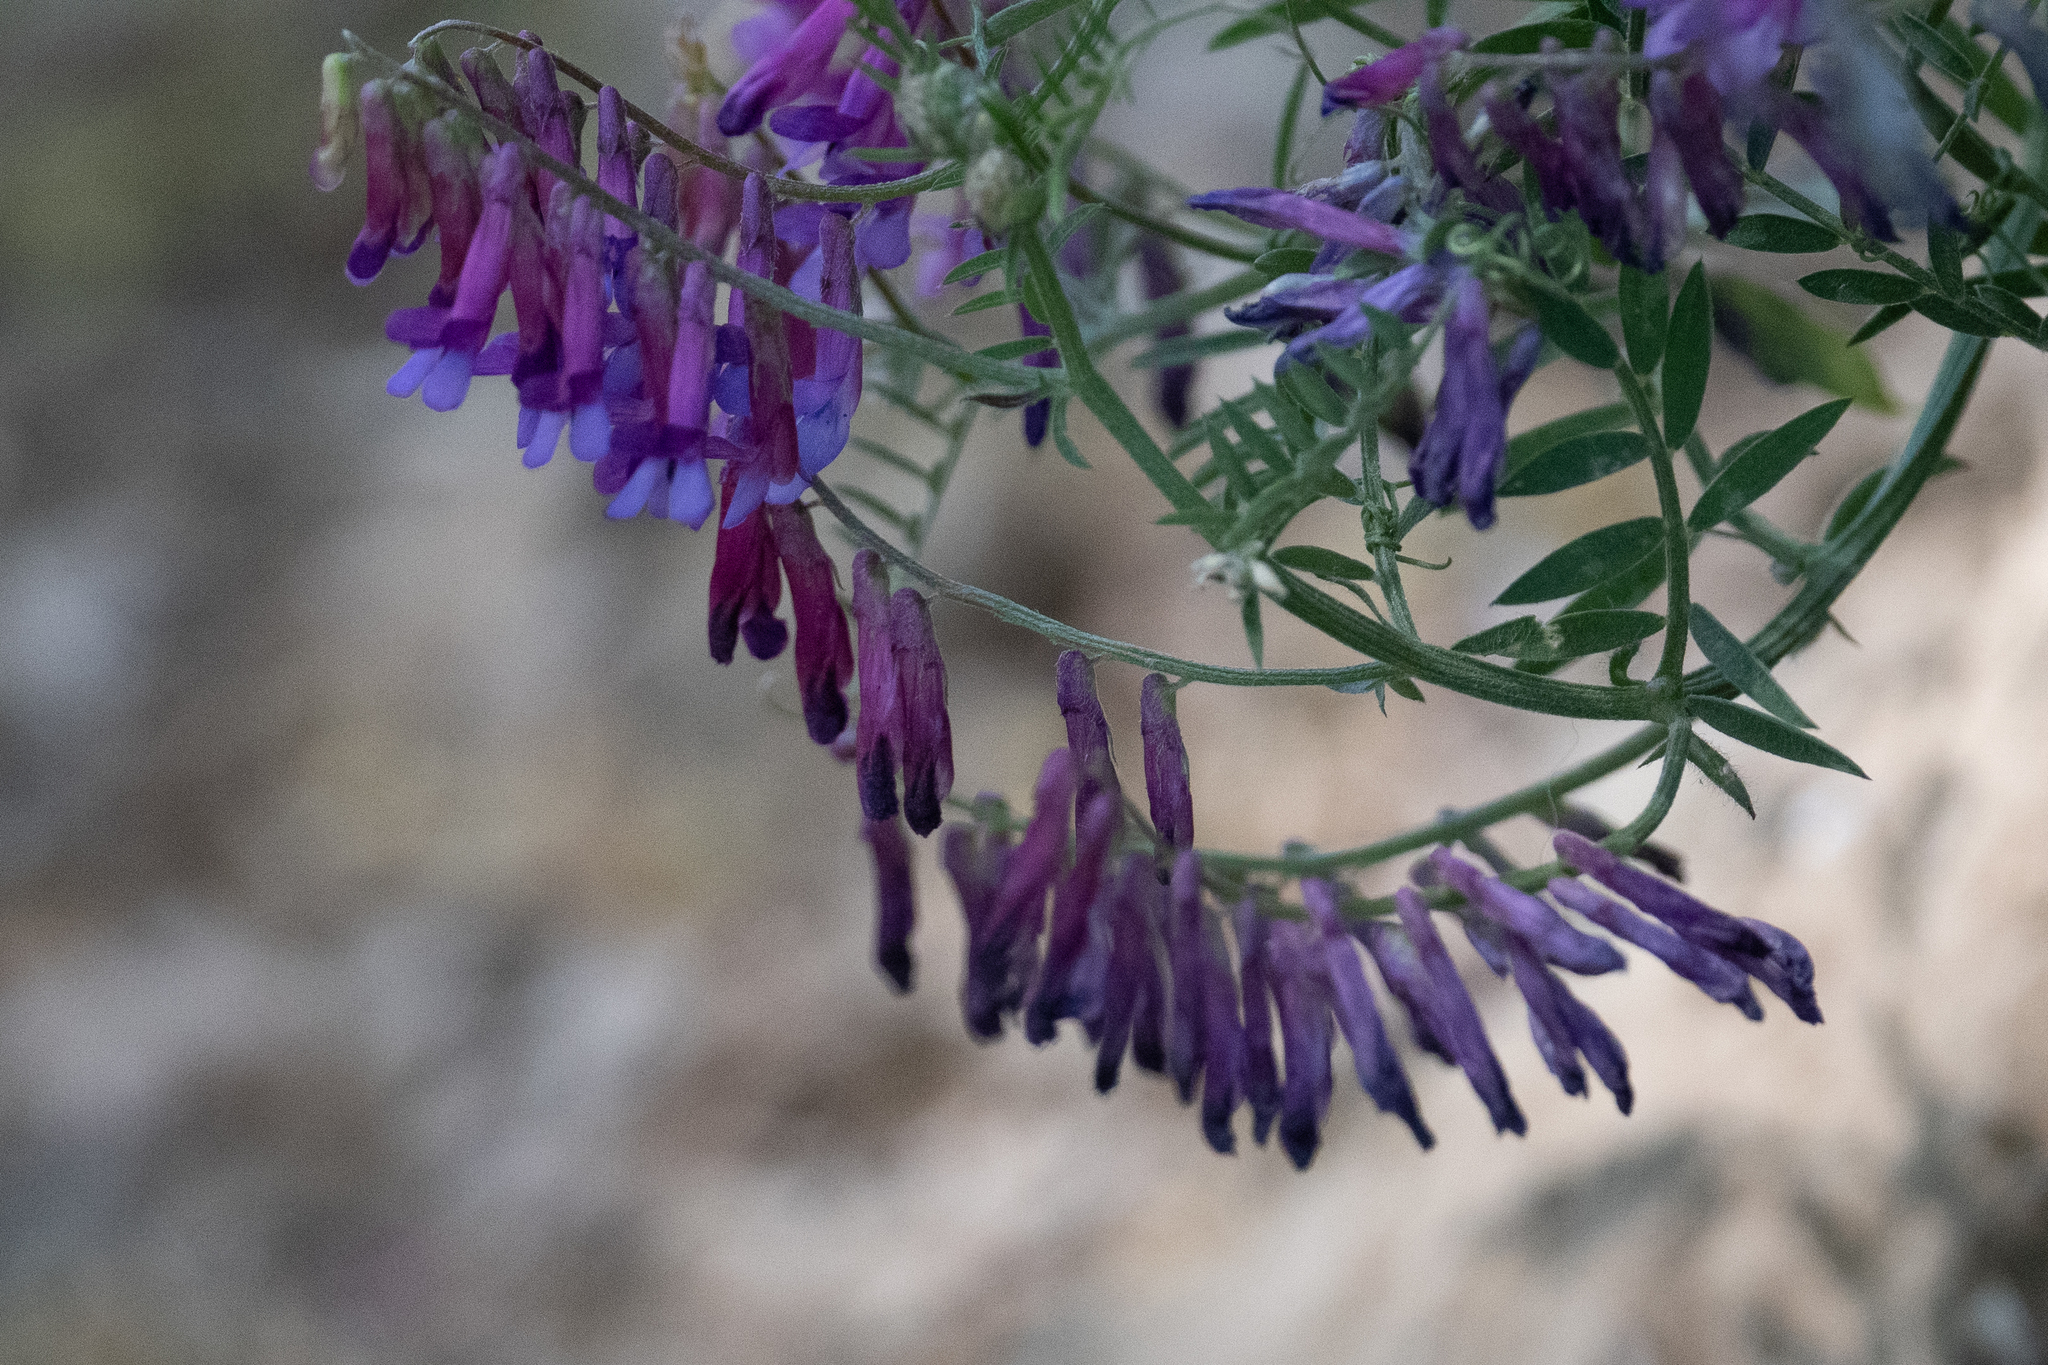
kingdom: Plantae
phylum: Tracheophyta
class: Magnoliopsida
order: Fabales
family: Fabaceae
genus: Vicia
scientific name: Vicia villosa
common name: Fodder vetch
